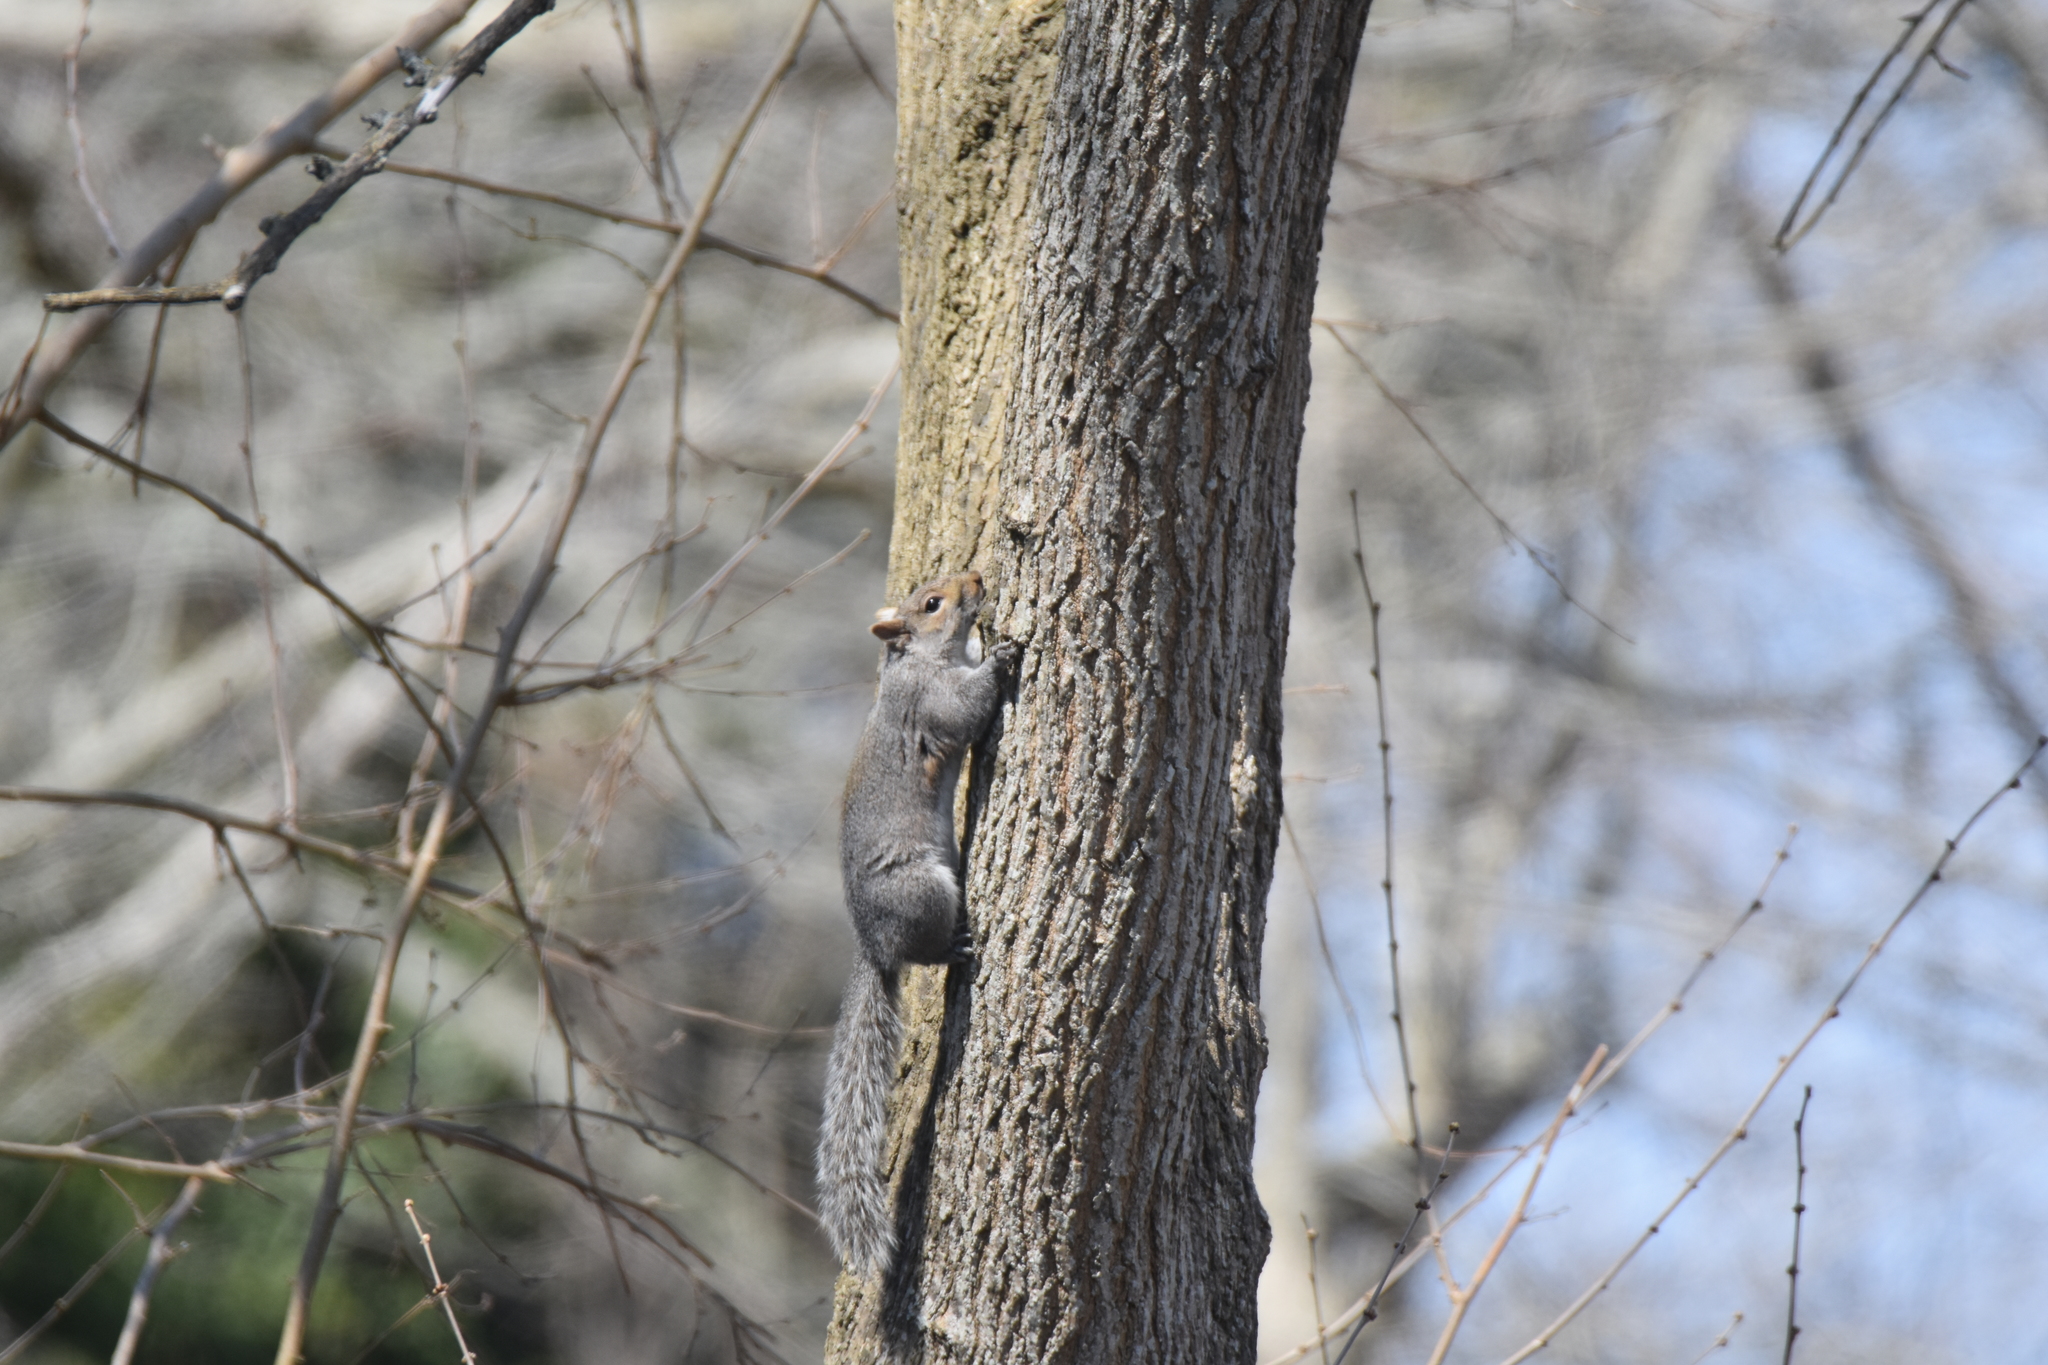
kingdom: Animalia
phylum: Chordata
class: Mammalia
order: Rodentia
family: Sciuridae
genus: Sciurus
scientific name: Sciurus carolinensis
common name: Eastern gray squirrel
